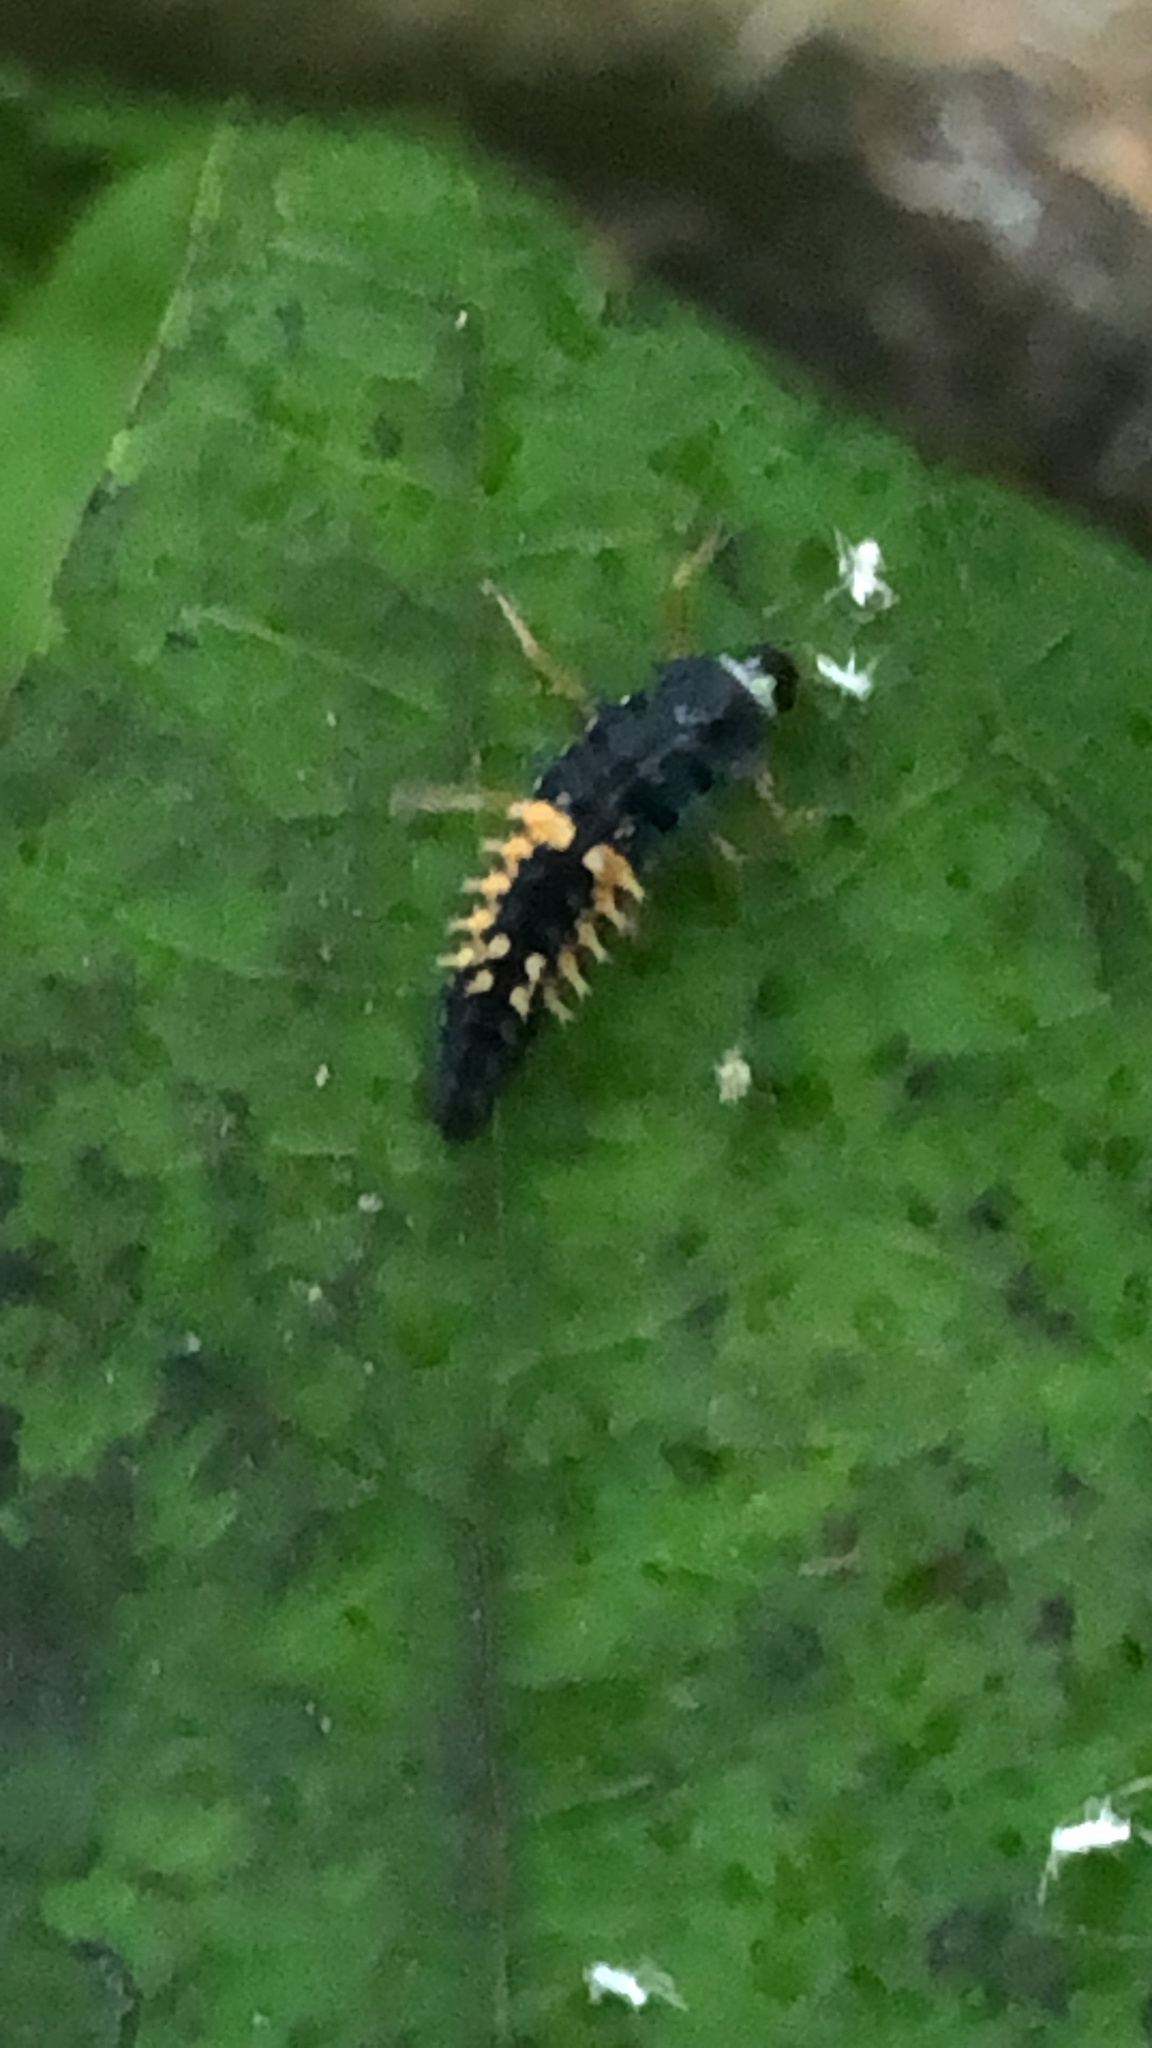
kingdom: Animalia
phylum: Arthropoda
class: Insecta
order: Coleoptera
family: Coccinellidae
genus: Harmonia
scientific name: Harmonia axyridis
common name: Harlequin ladybird
